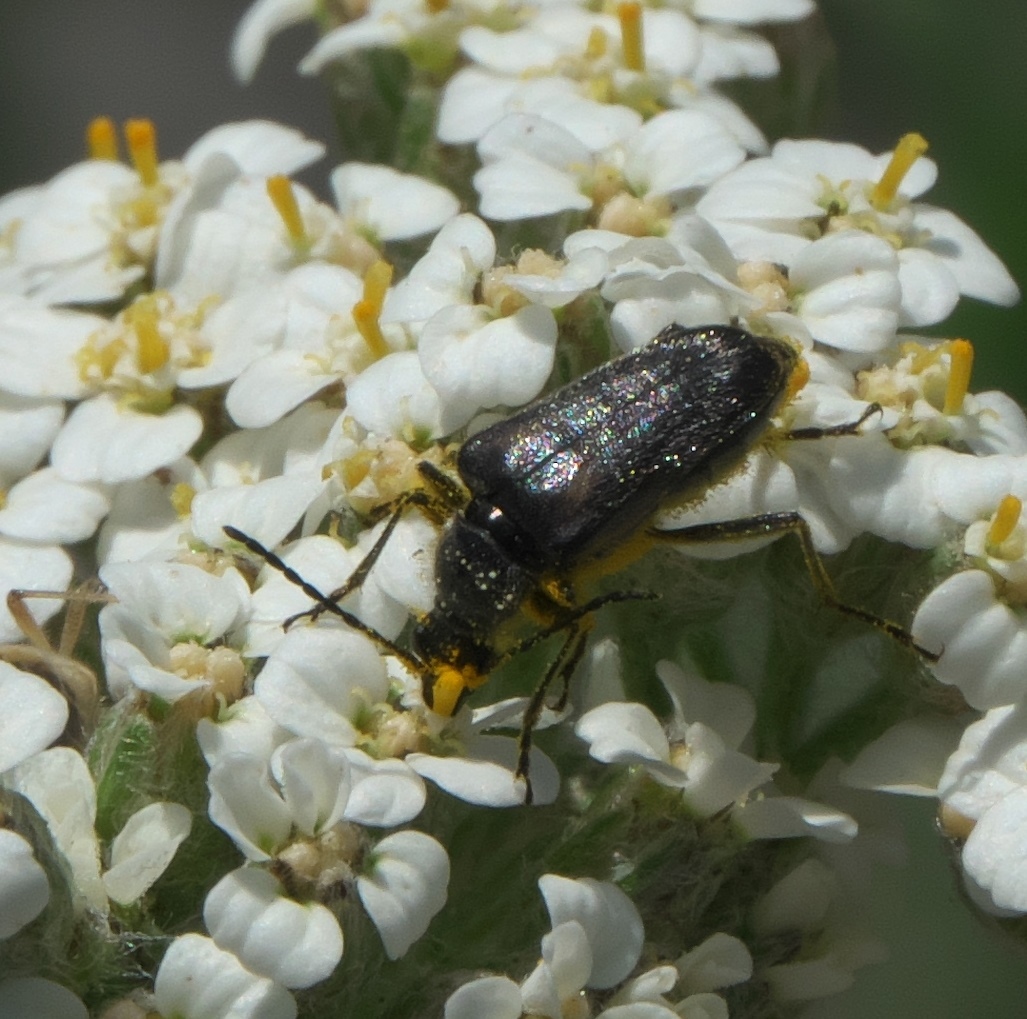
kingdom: Animalia
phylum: Arthropoda
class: Insecta
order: Coleoptera
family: Cerambycidae
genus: Brachysomida
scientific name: Brachysomida californica
